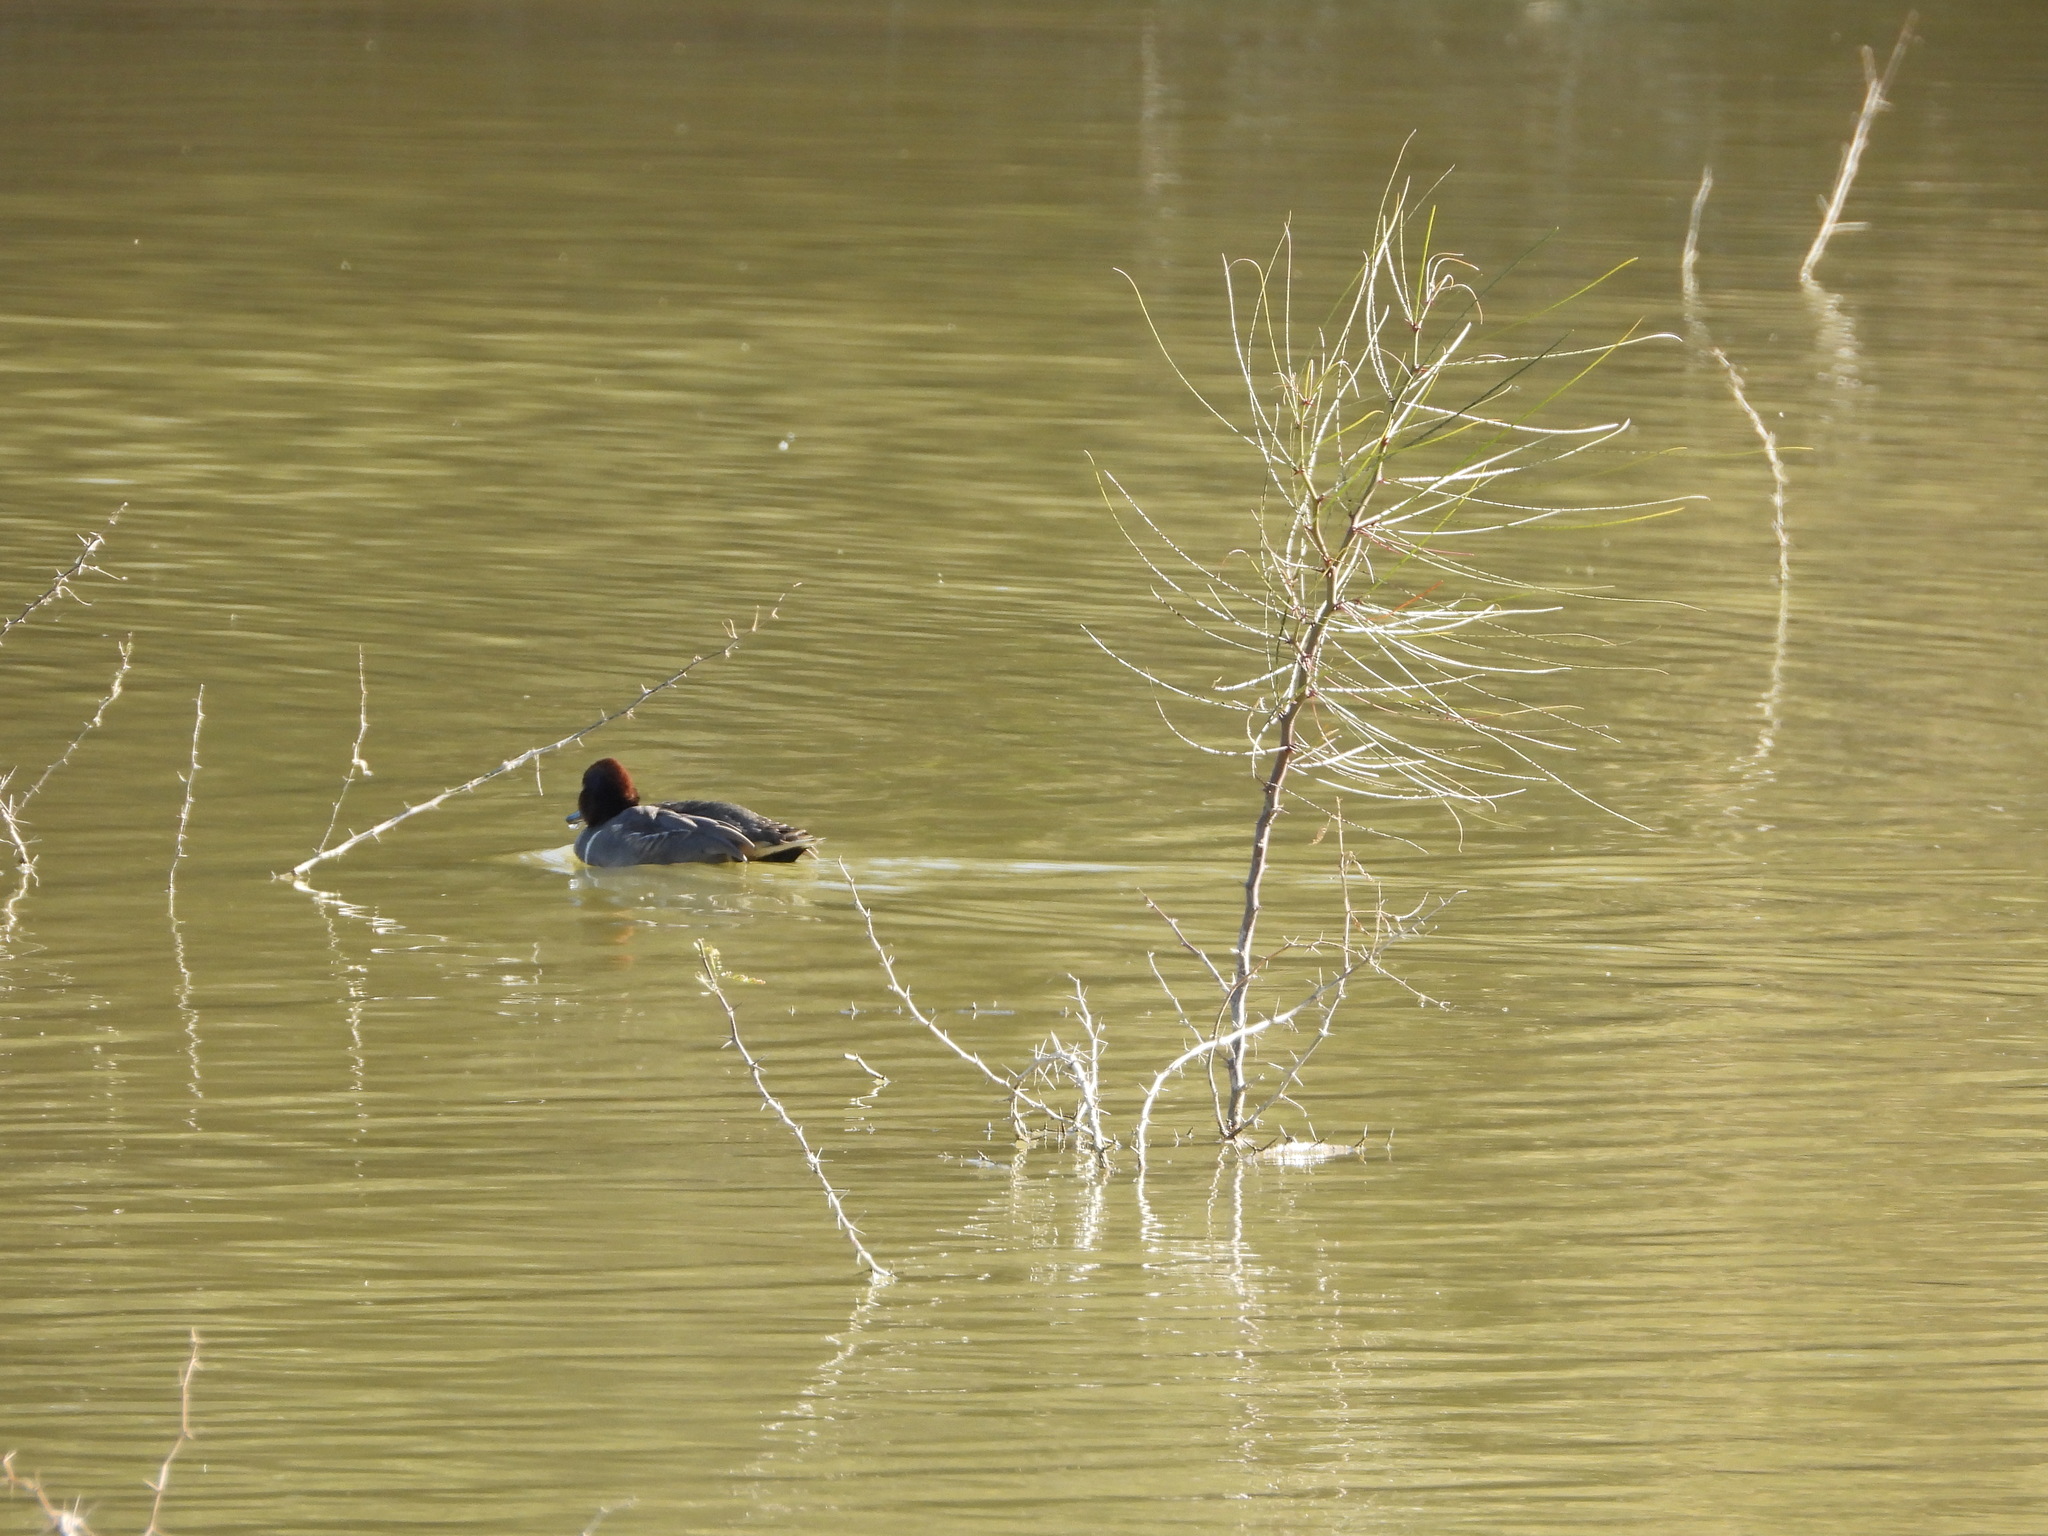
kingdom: Animalia
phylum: Chordata
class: Aves
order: Anseriformes
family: Anatidae
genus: Anas
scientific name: Anas crecca
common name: Eurasian teal
